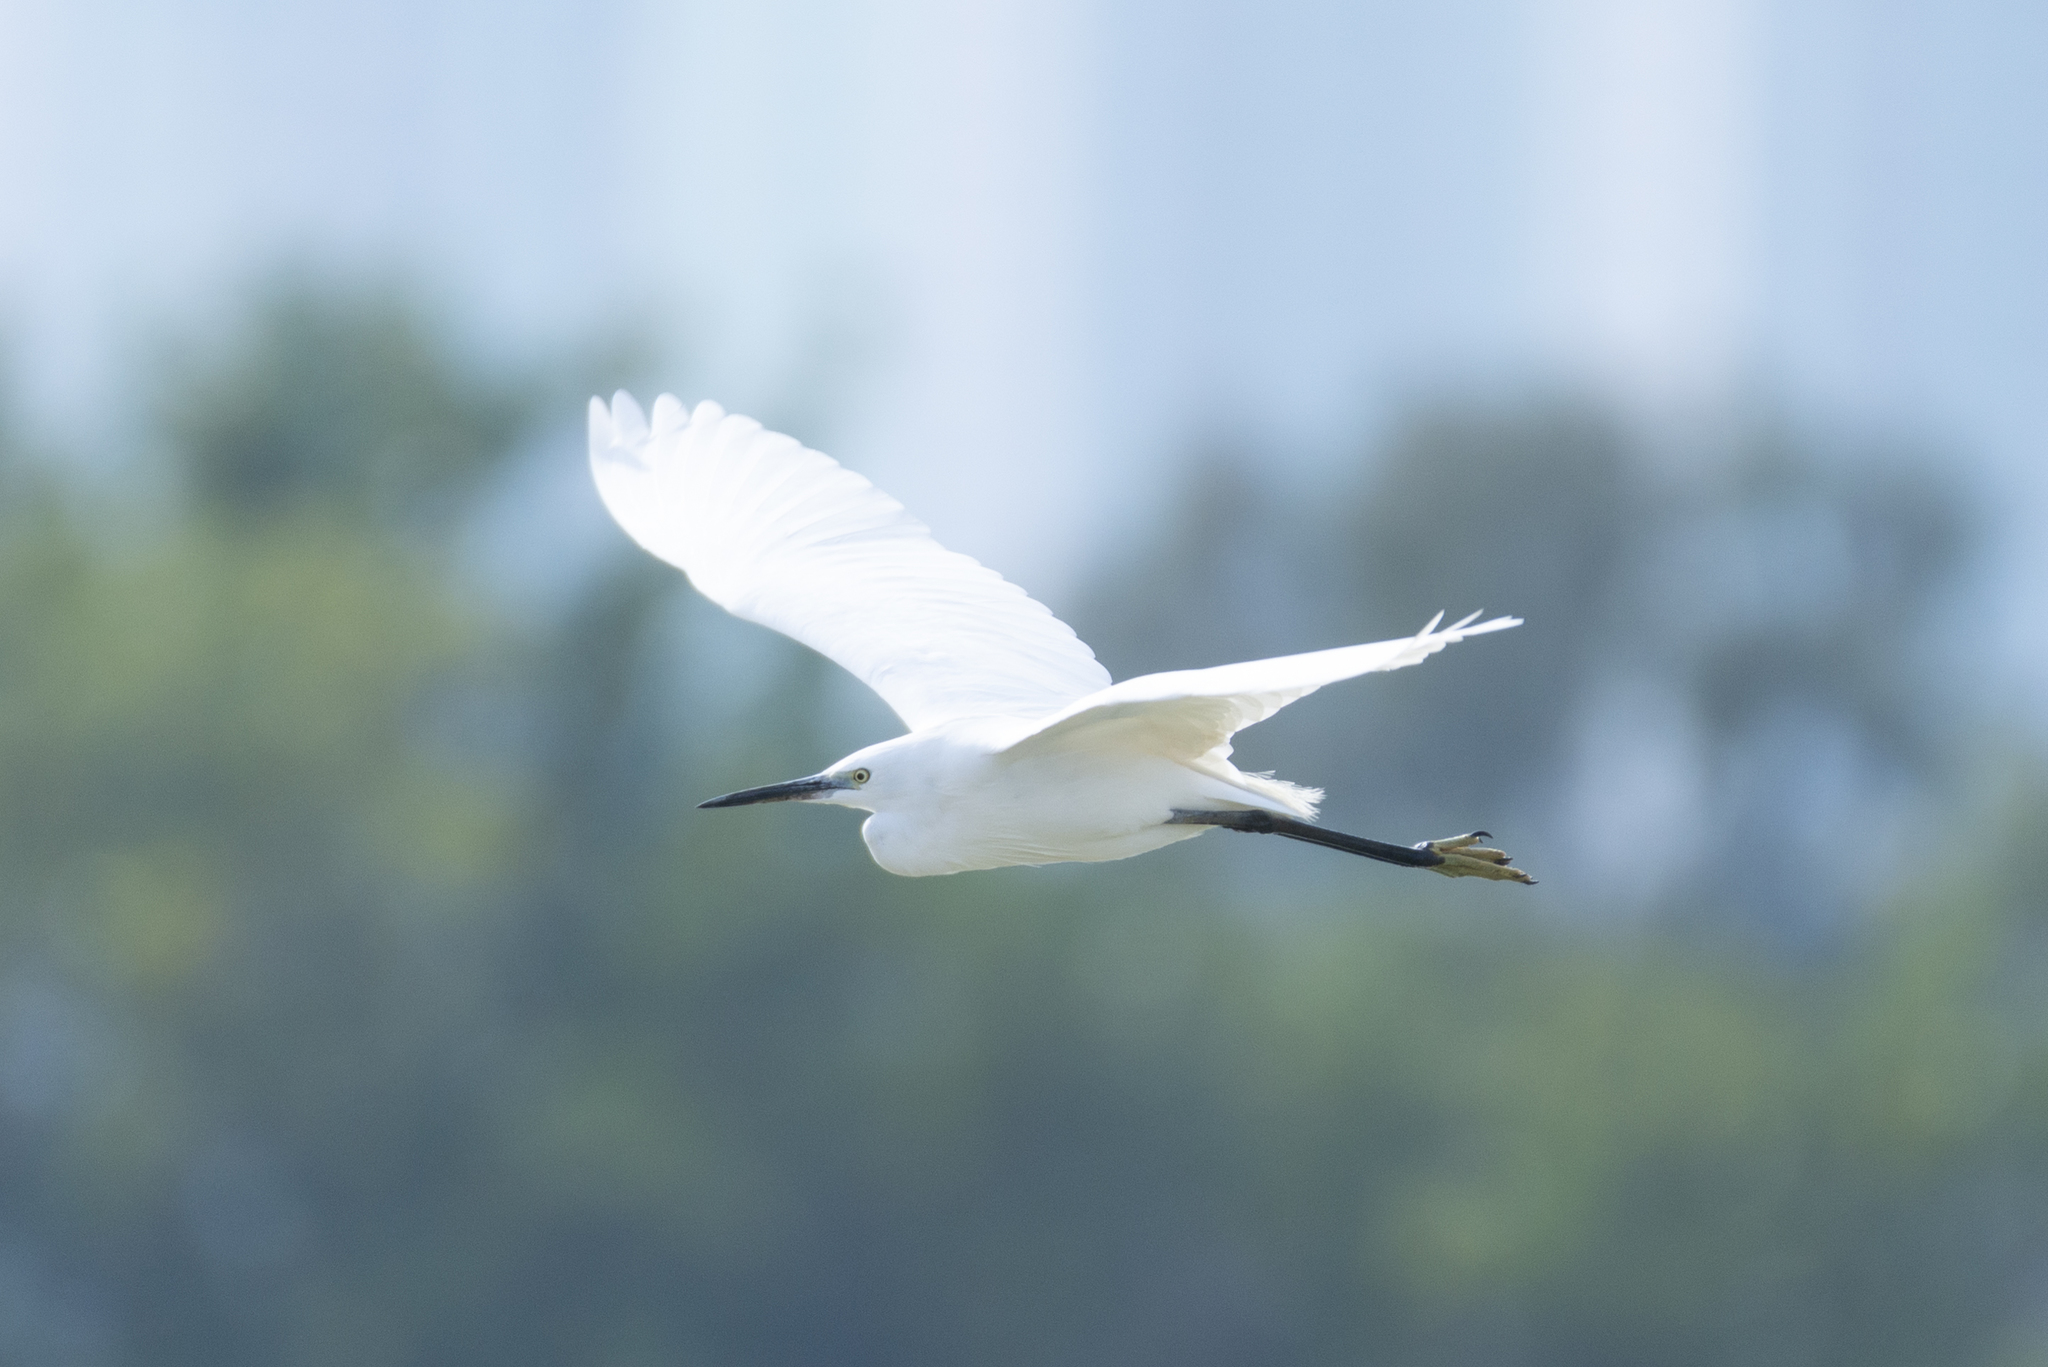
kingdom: Animalia
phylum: Chordata
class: Aves
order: Pelecaniformes
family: Ardeidae
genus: Egretta
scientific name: Egretta garzetta
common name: Little egret
